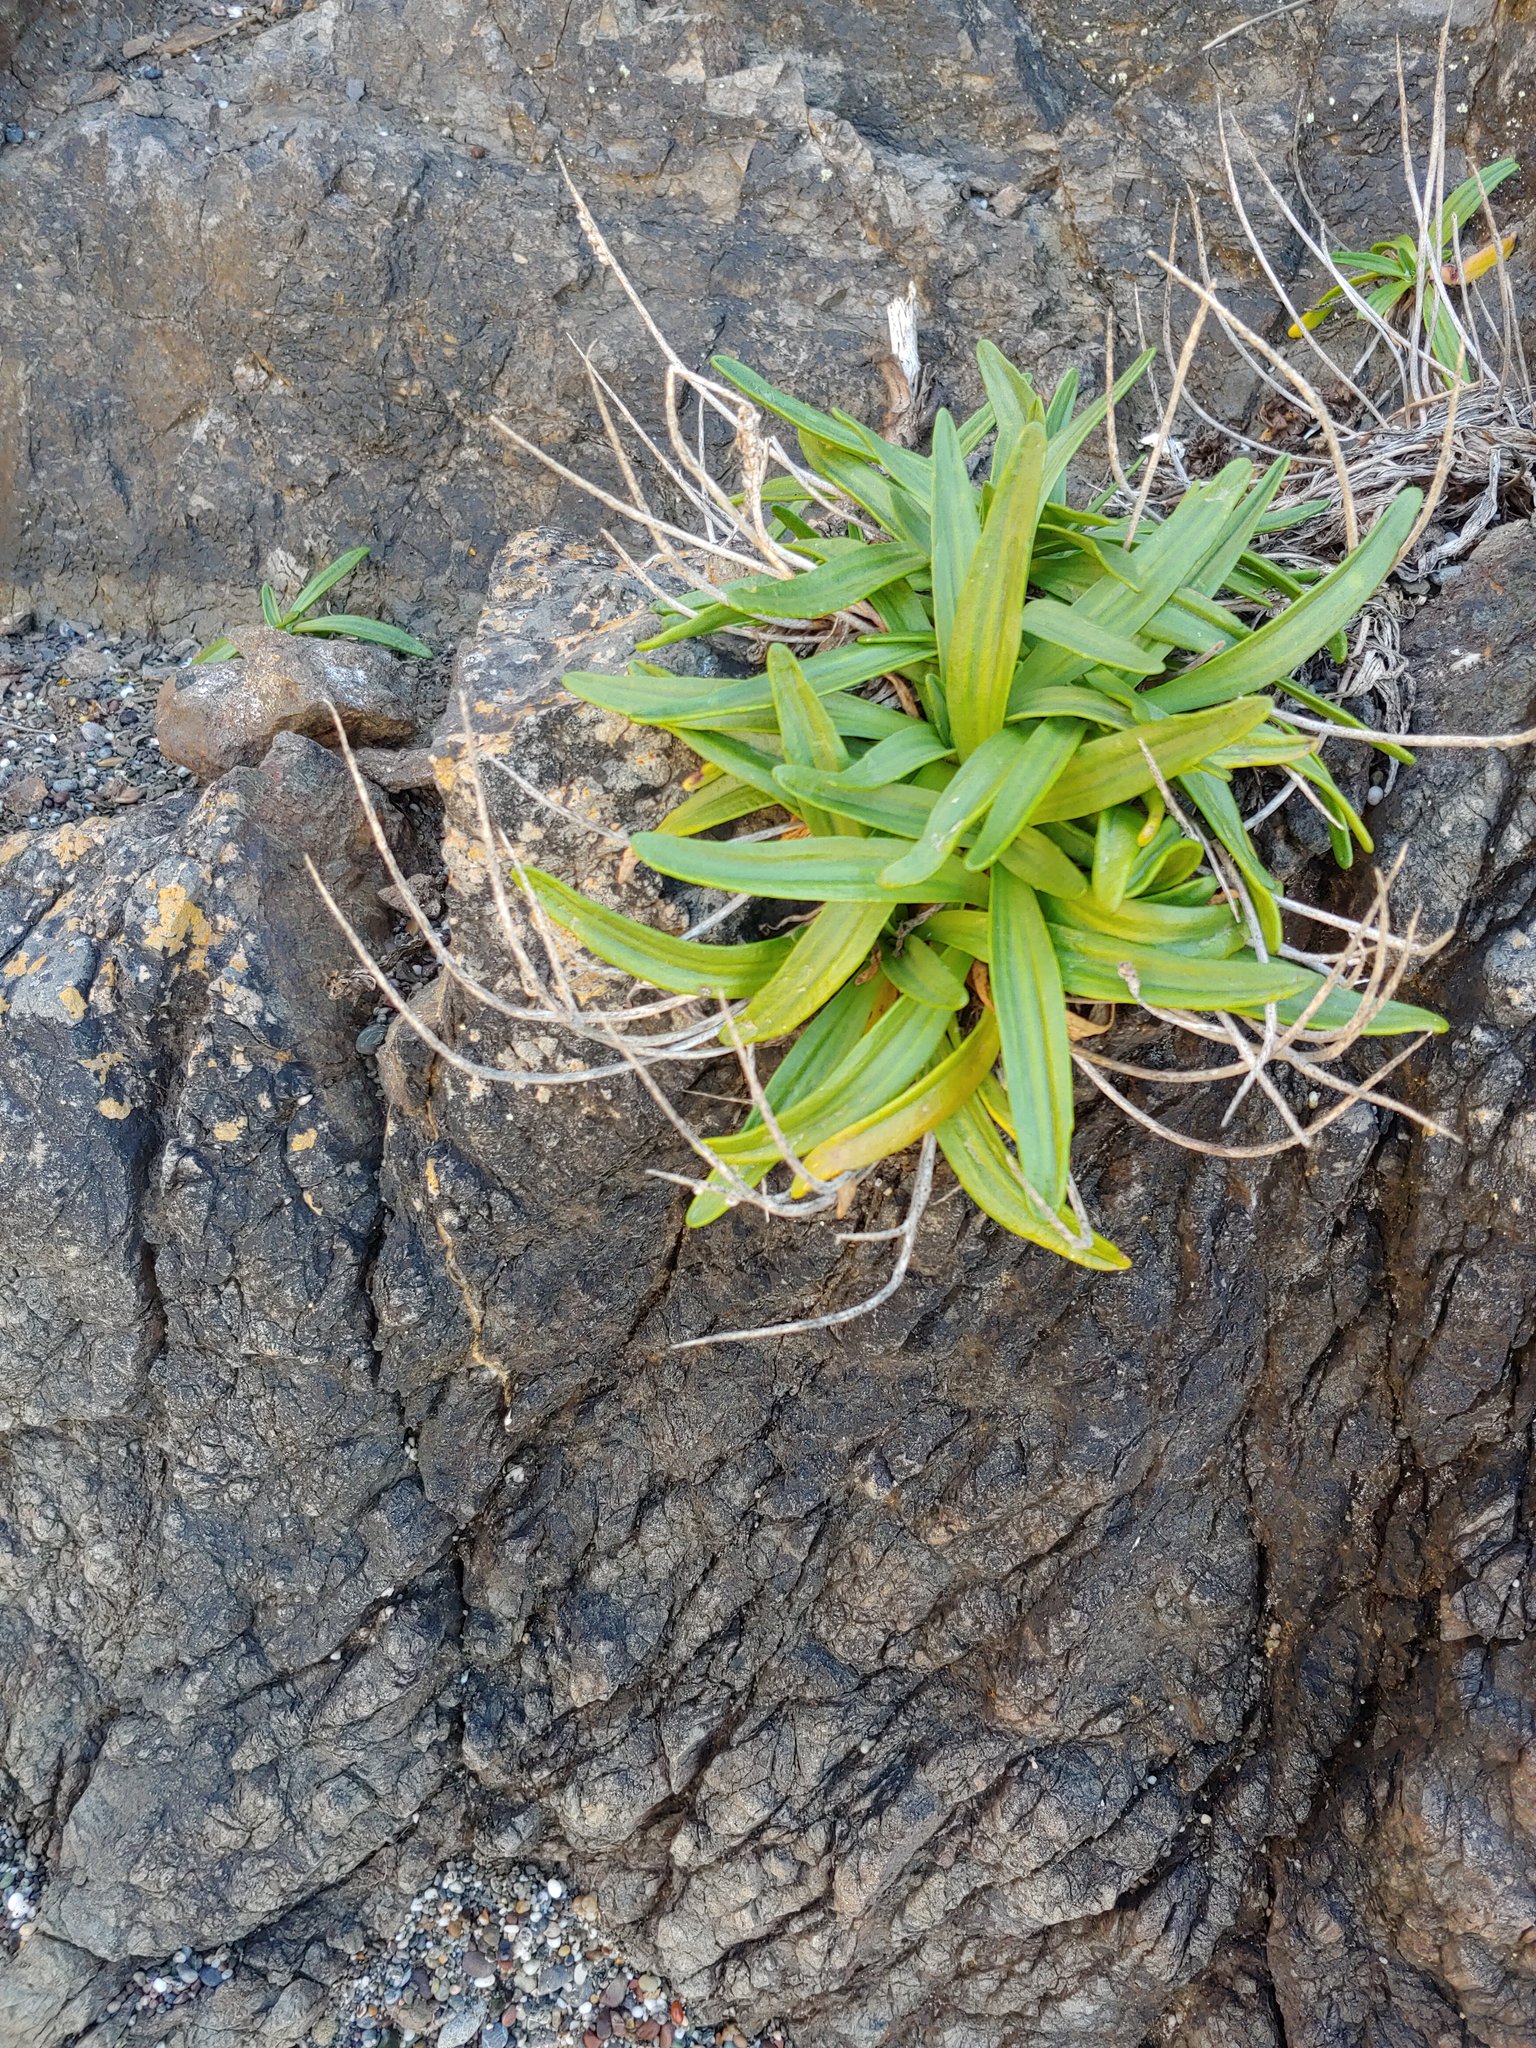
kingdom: Plantae
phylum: Tracheophyta
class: Magnoliopsida
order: Lamiales
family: Plantaginaceae
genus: Plantago
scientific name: Plantago maritima
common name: Sea plantain
